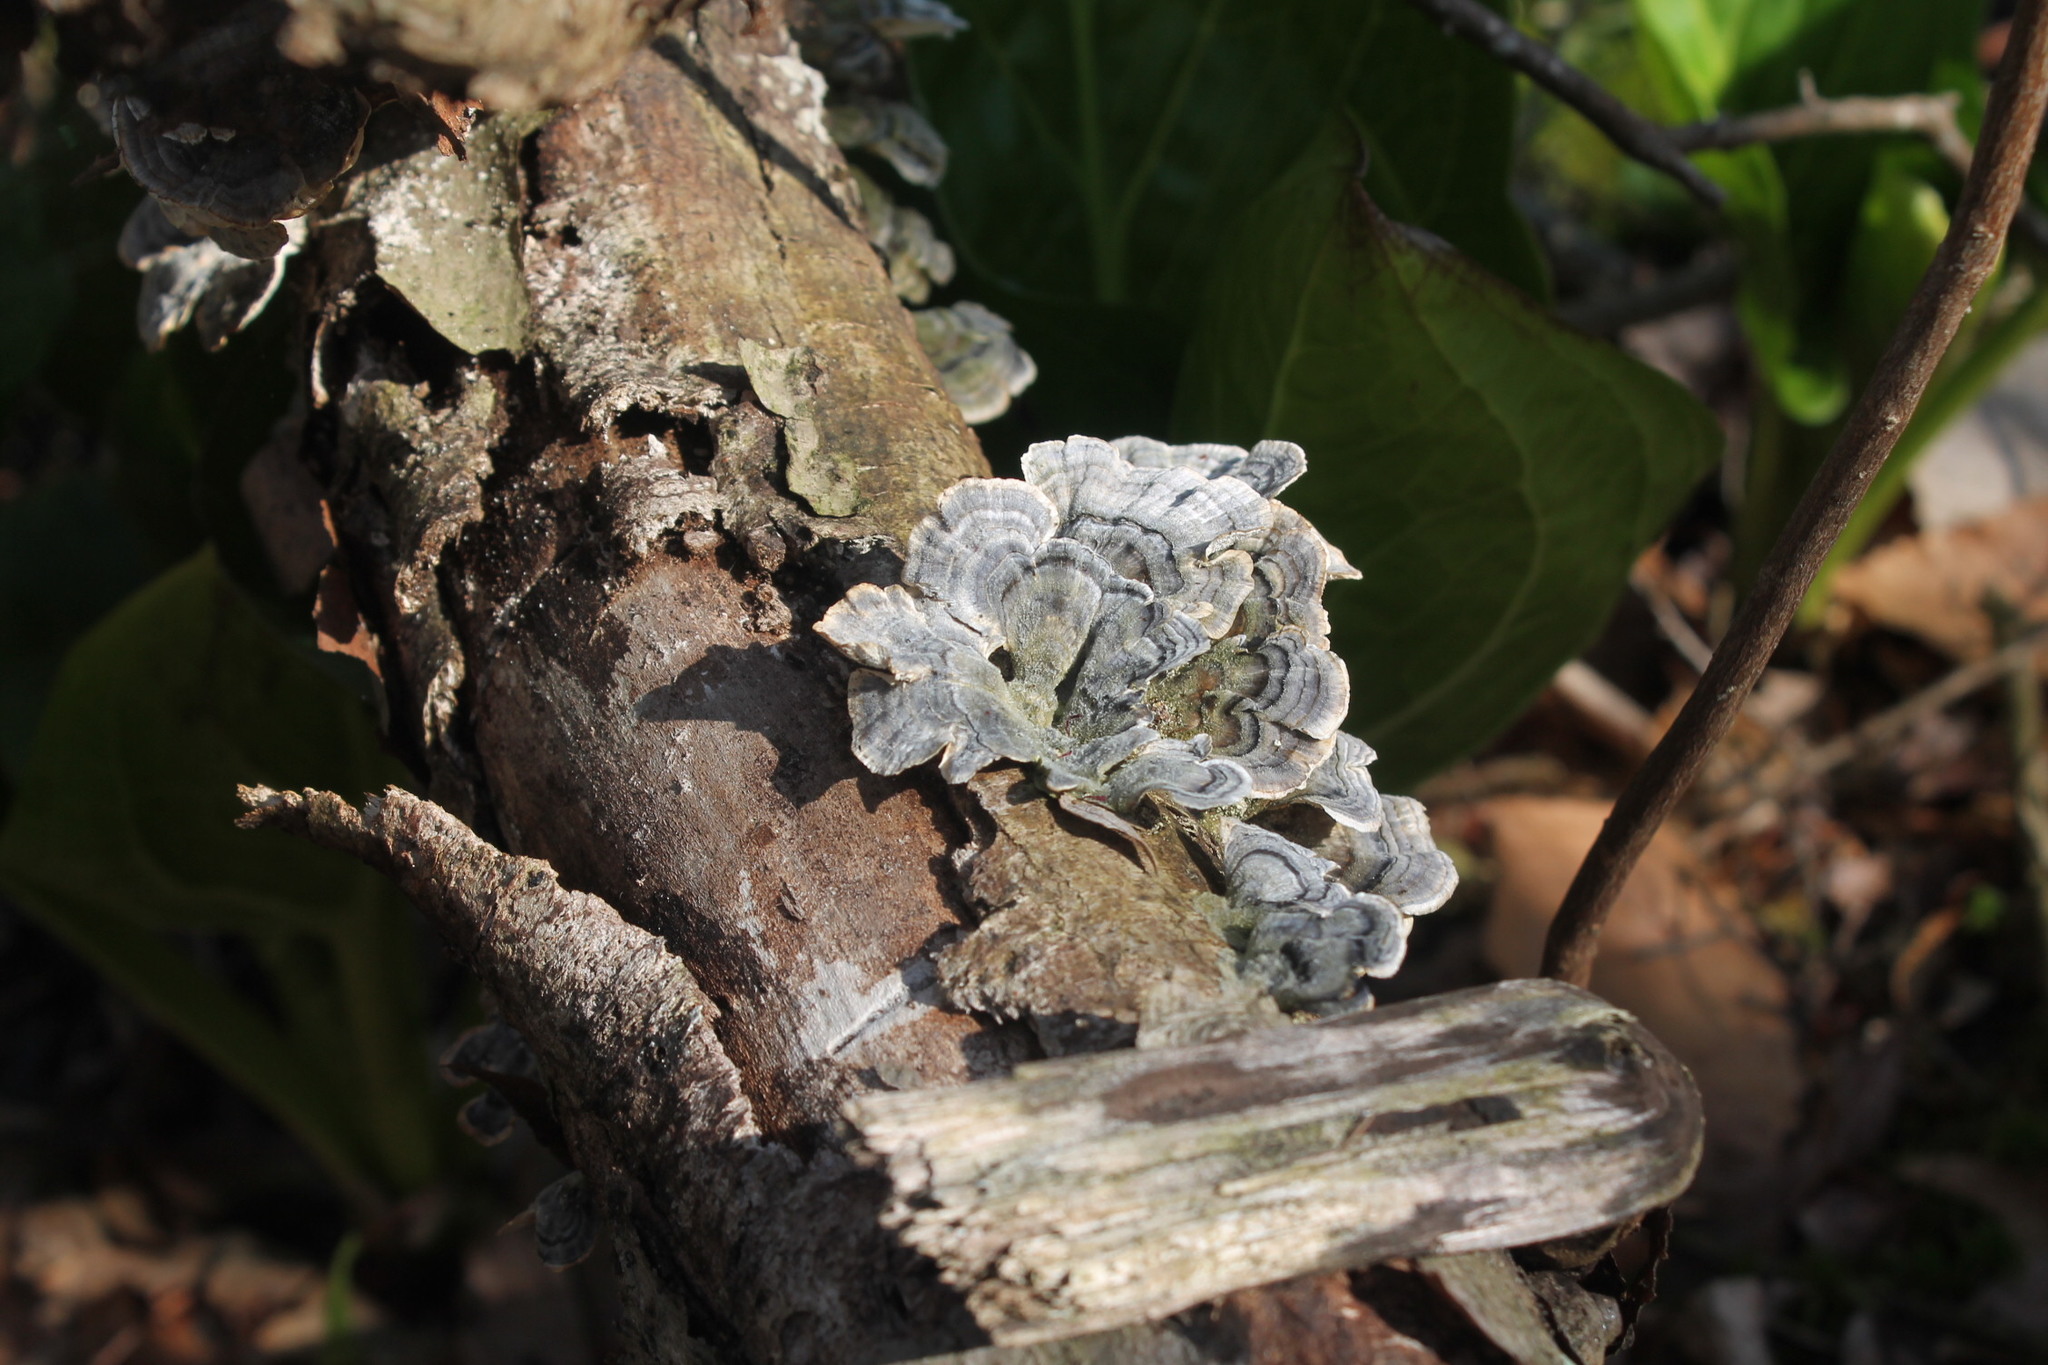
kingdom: Fungi
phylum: Basidiomycota
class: Agaricomycetes
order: Polyporales
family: Polyporaceae
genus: Trametes
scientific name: Trametes versicolor
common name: Turkeytail
